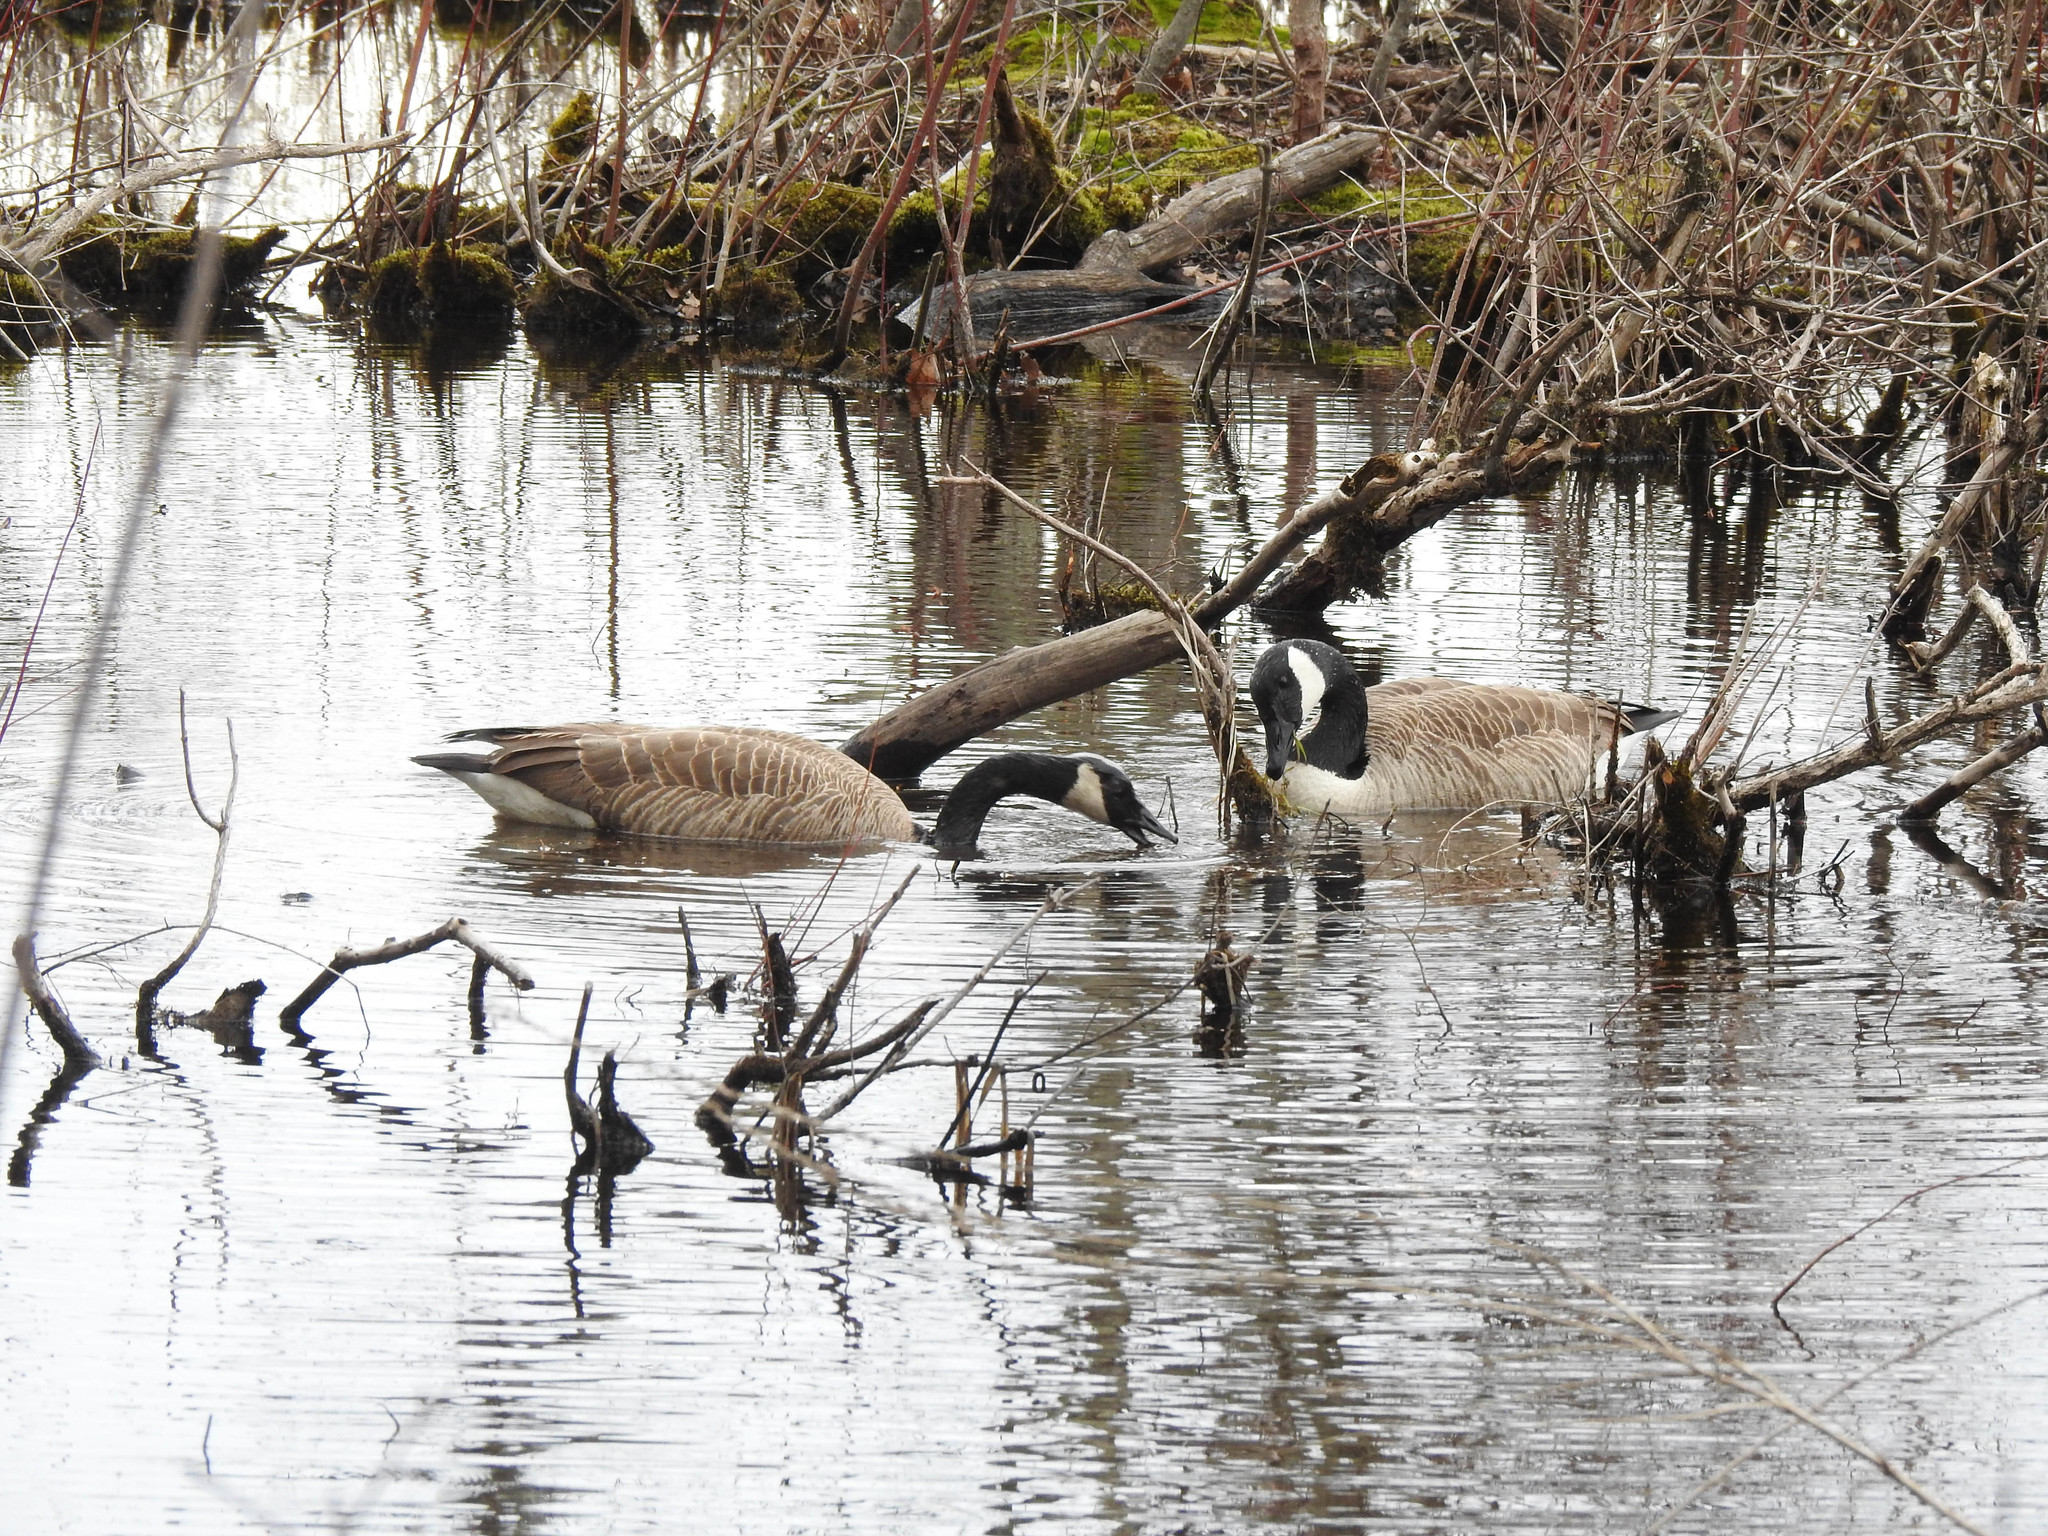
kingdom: Animalia
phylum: Chordata
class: Aves
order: Anseriformes
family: Anatidae
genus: Branta
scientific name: Branta canadensis
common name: Canada goose
